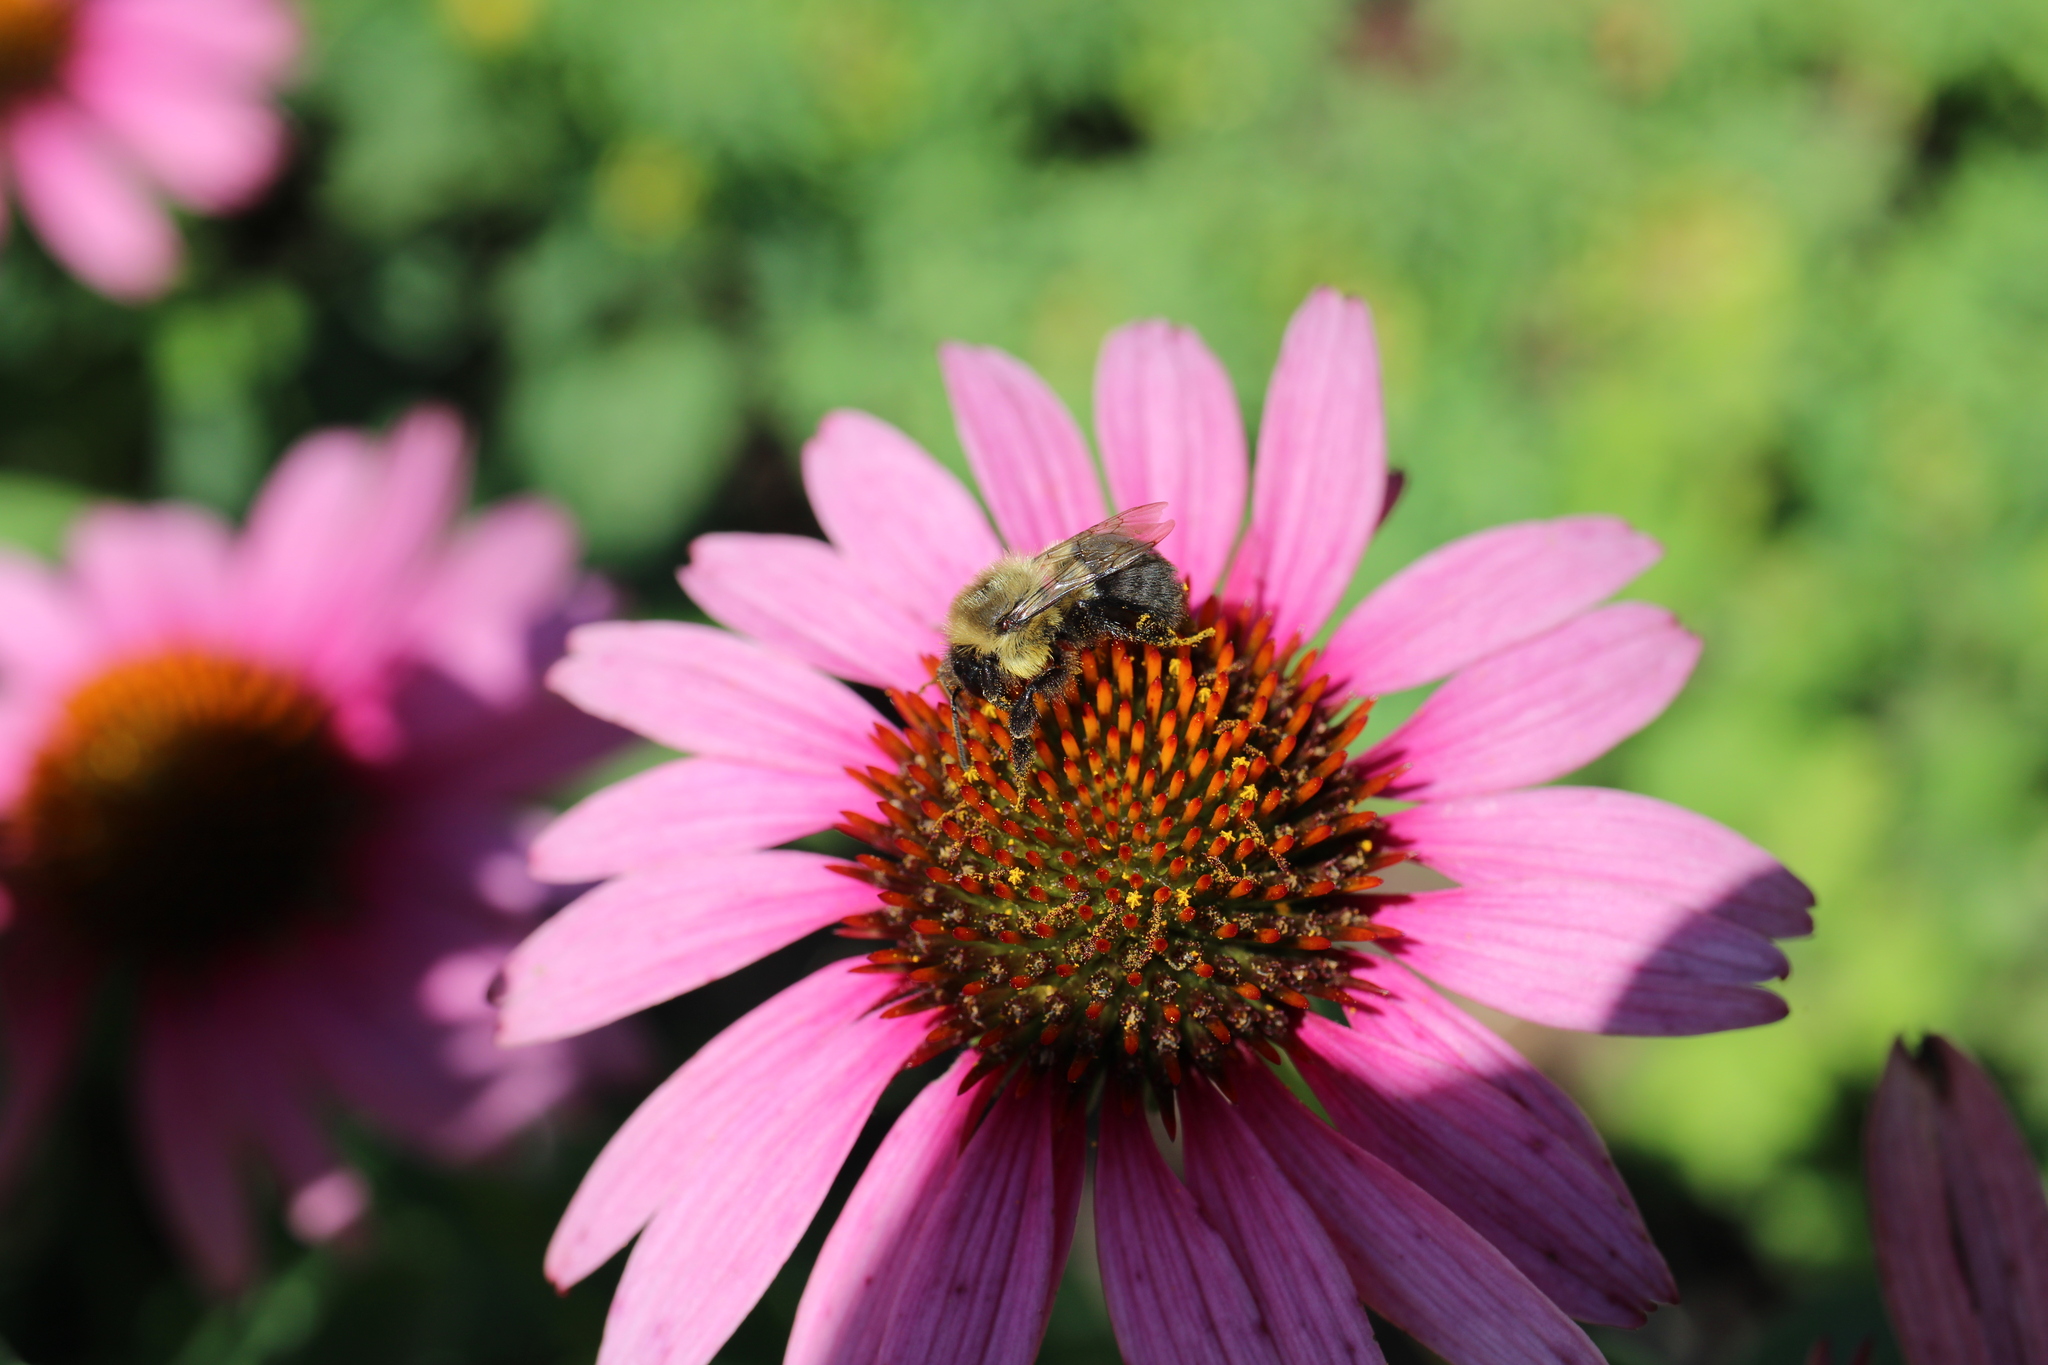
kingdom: Animalia
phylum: Arthropoda
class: Insecta
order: Hymenoptera
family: Apidae
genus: Bombus
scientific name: Bombus impatiens
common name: Common eastern bumble bee
